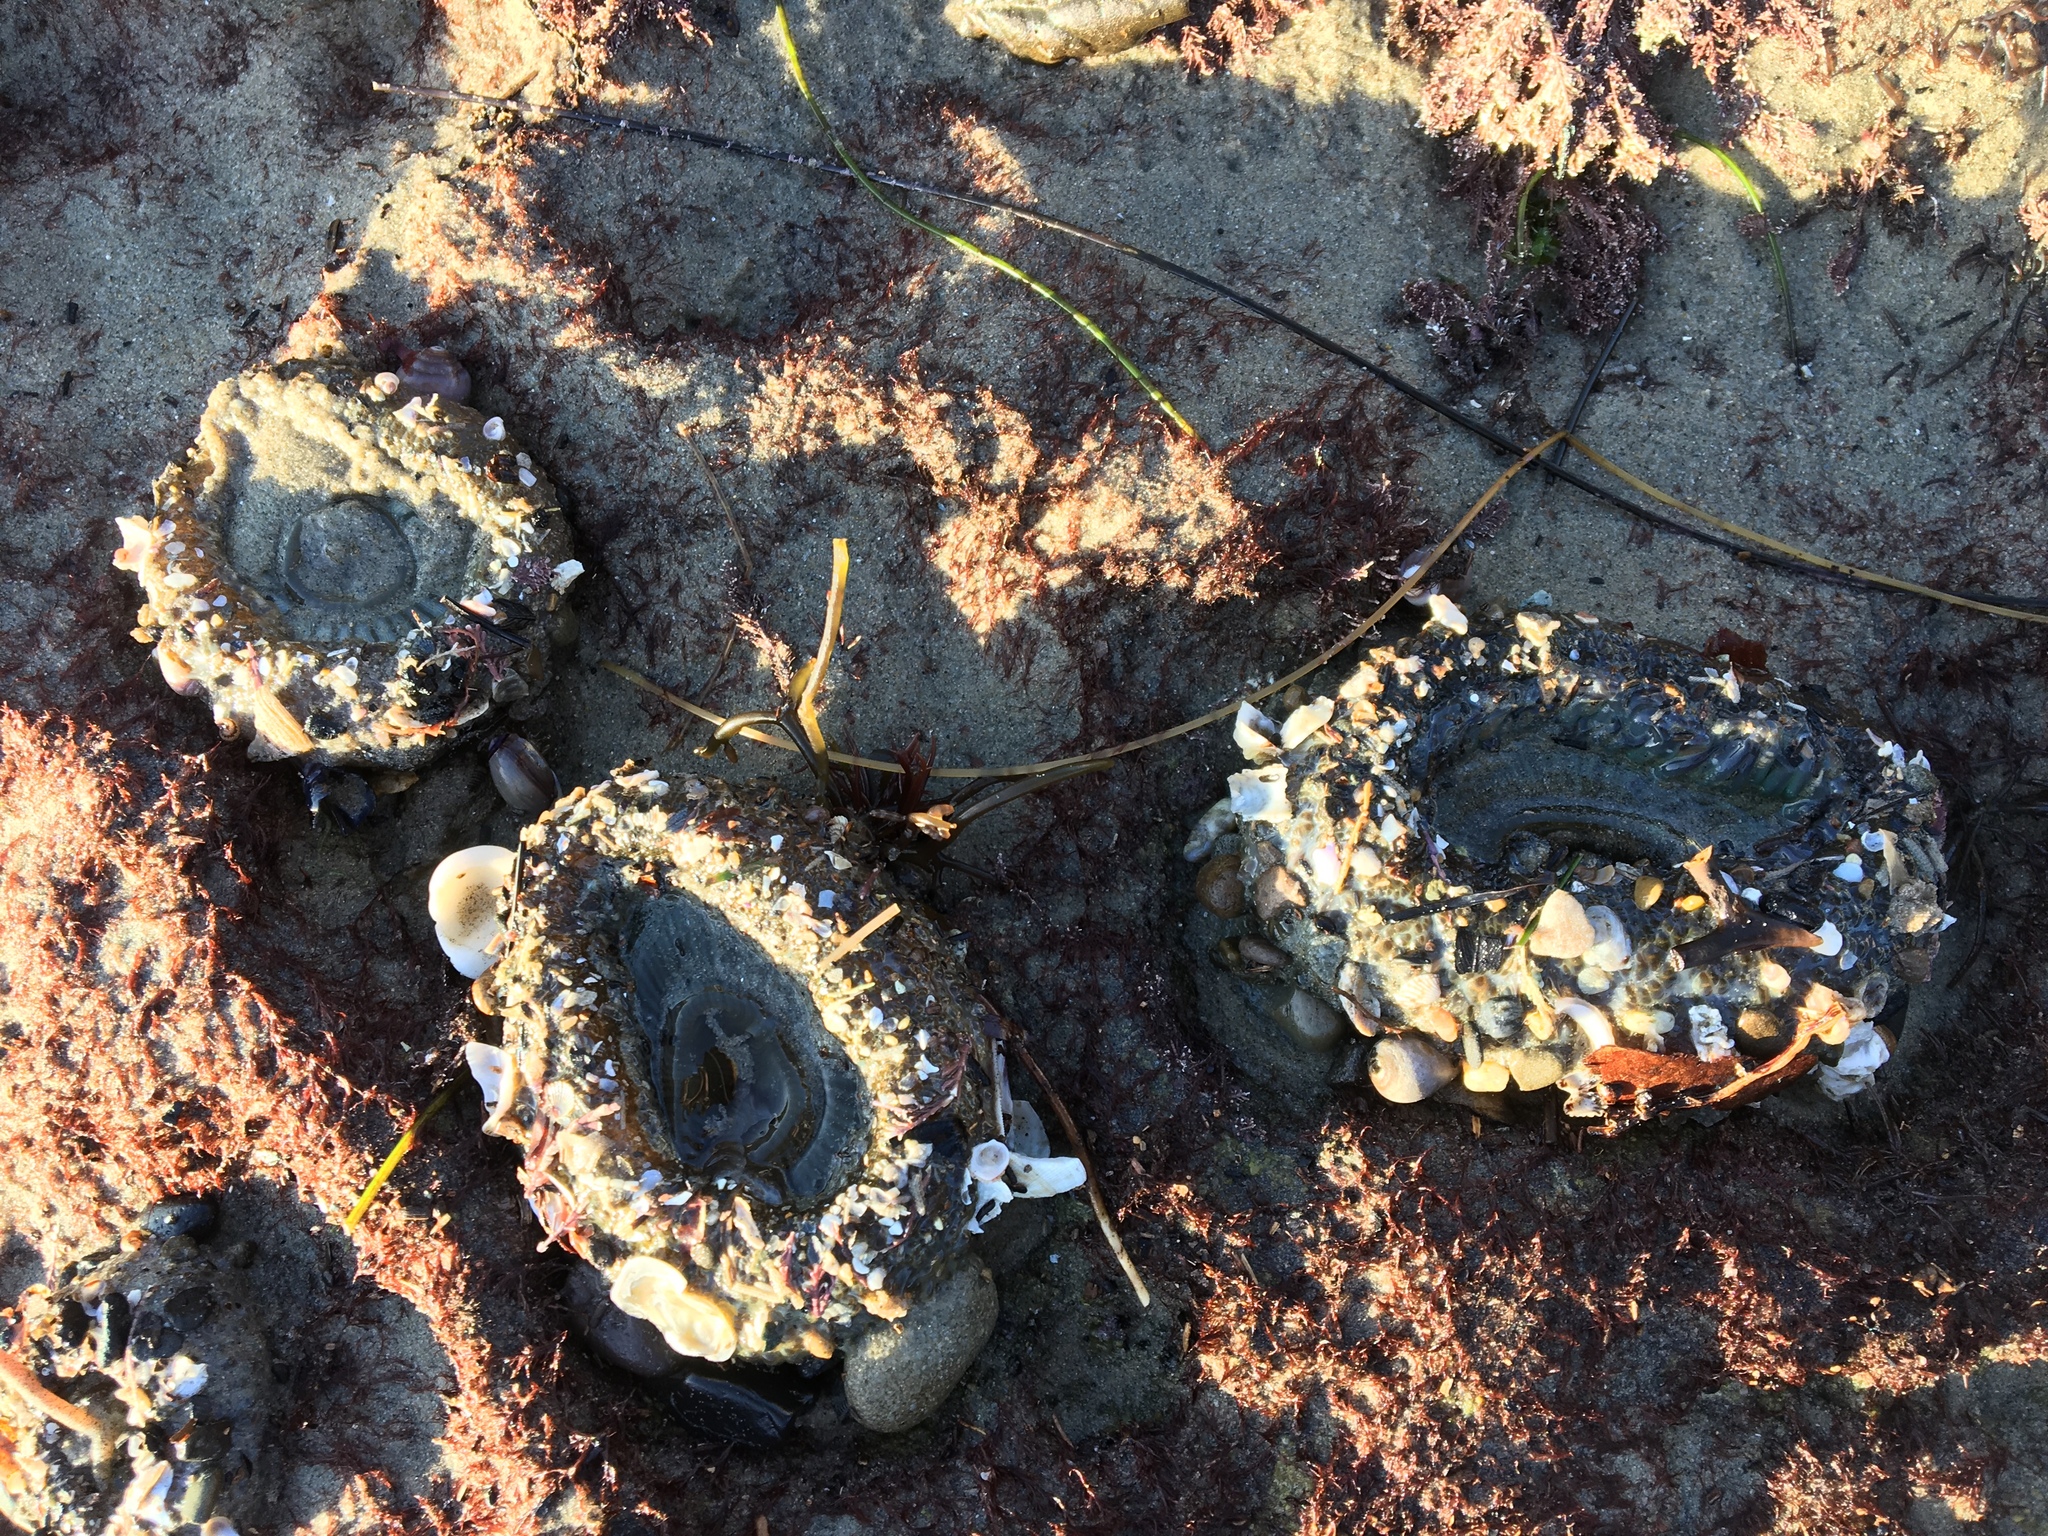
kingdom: Animalia
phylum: Cnidaria
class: Anthozoa
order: Actiniaria
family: Actiniidae
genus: Anthopleura
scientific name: Anthopleura sola
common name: Sun anemone
